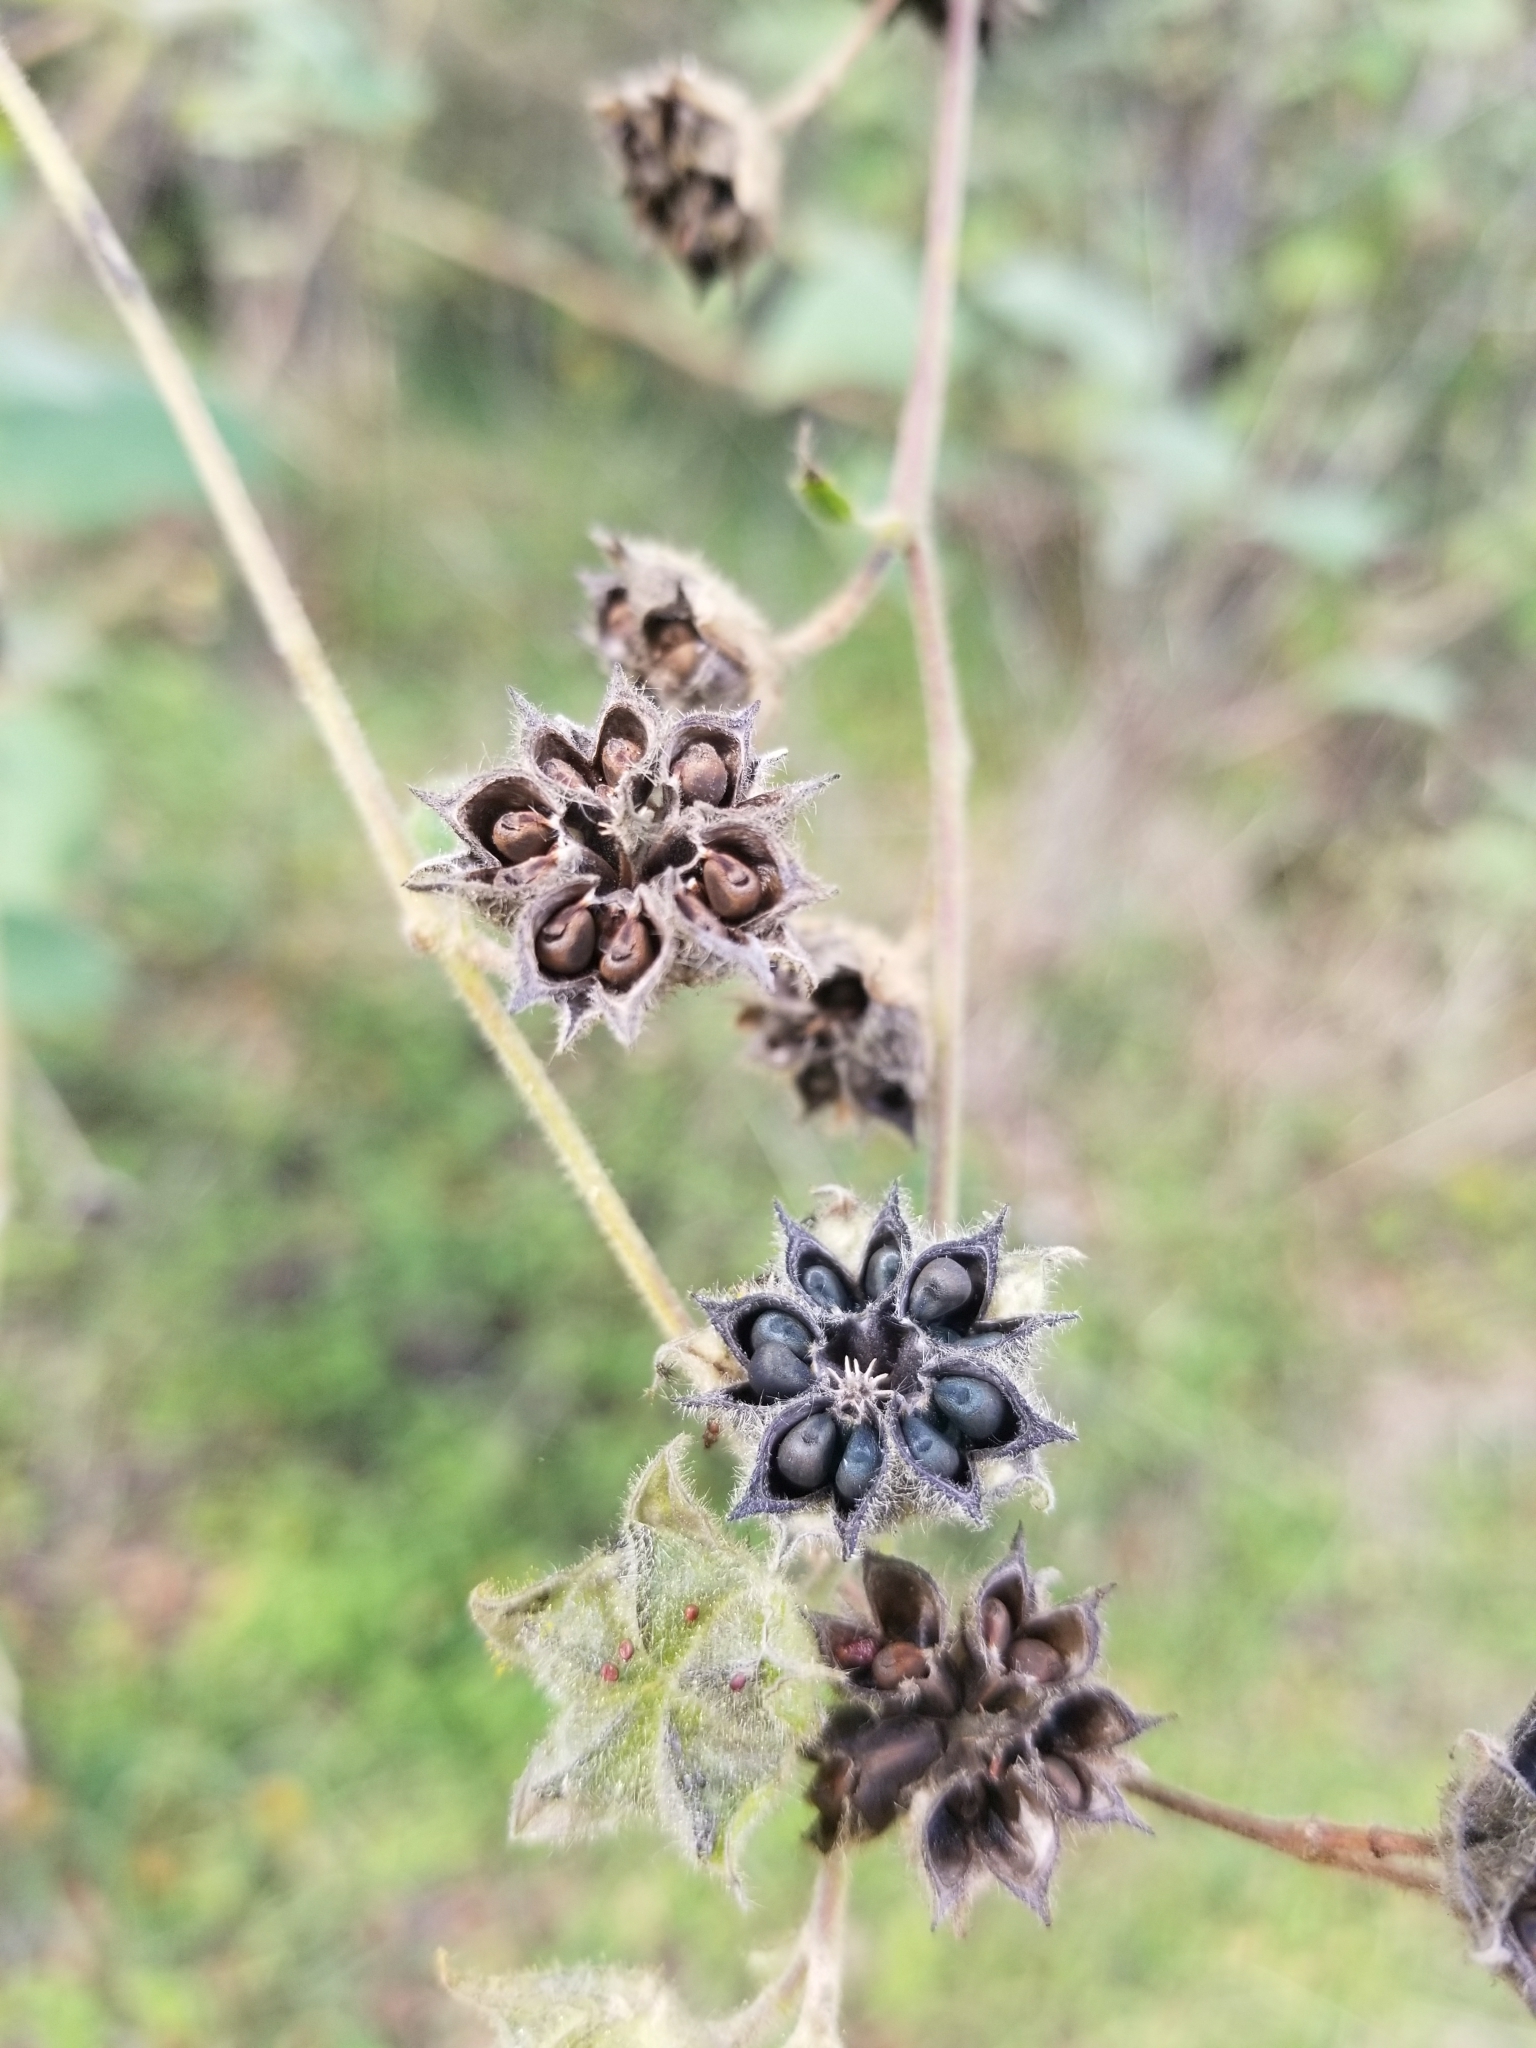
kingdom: Plantae
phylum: Tracheophyta
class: Magnoliopsida
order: Malvales
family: Malvaceae
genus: Allowissadula
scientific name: Allowissadula holosericea
